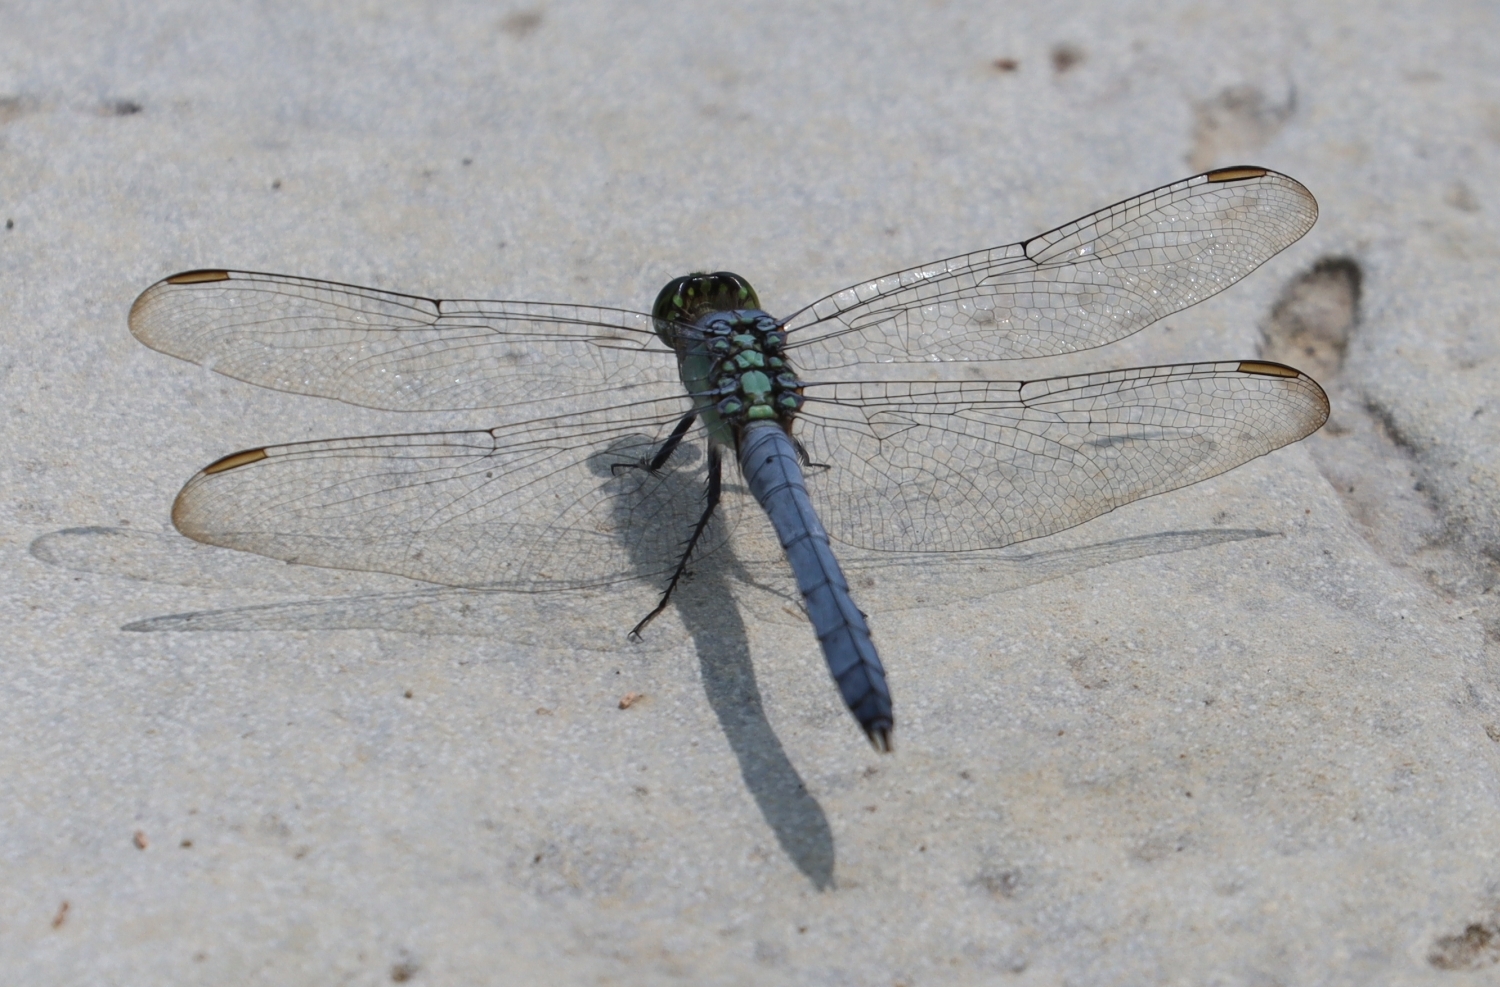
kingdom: Animalia
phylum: Arthropoda
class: Insecta
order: Odonata
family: Libellulidae
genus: Erythemis
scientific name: Erythemis simplicicollis
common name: Eastern pondhawk
